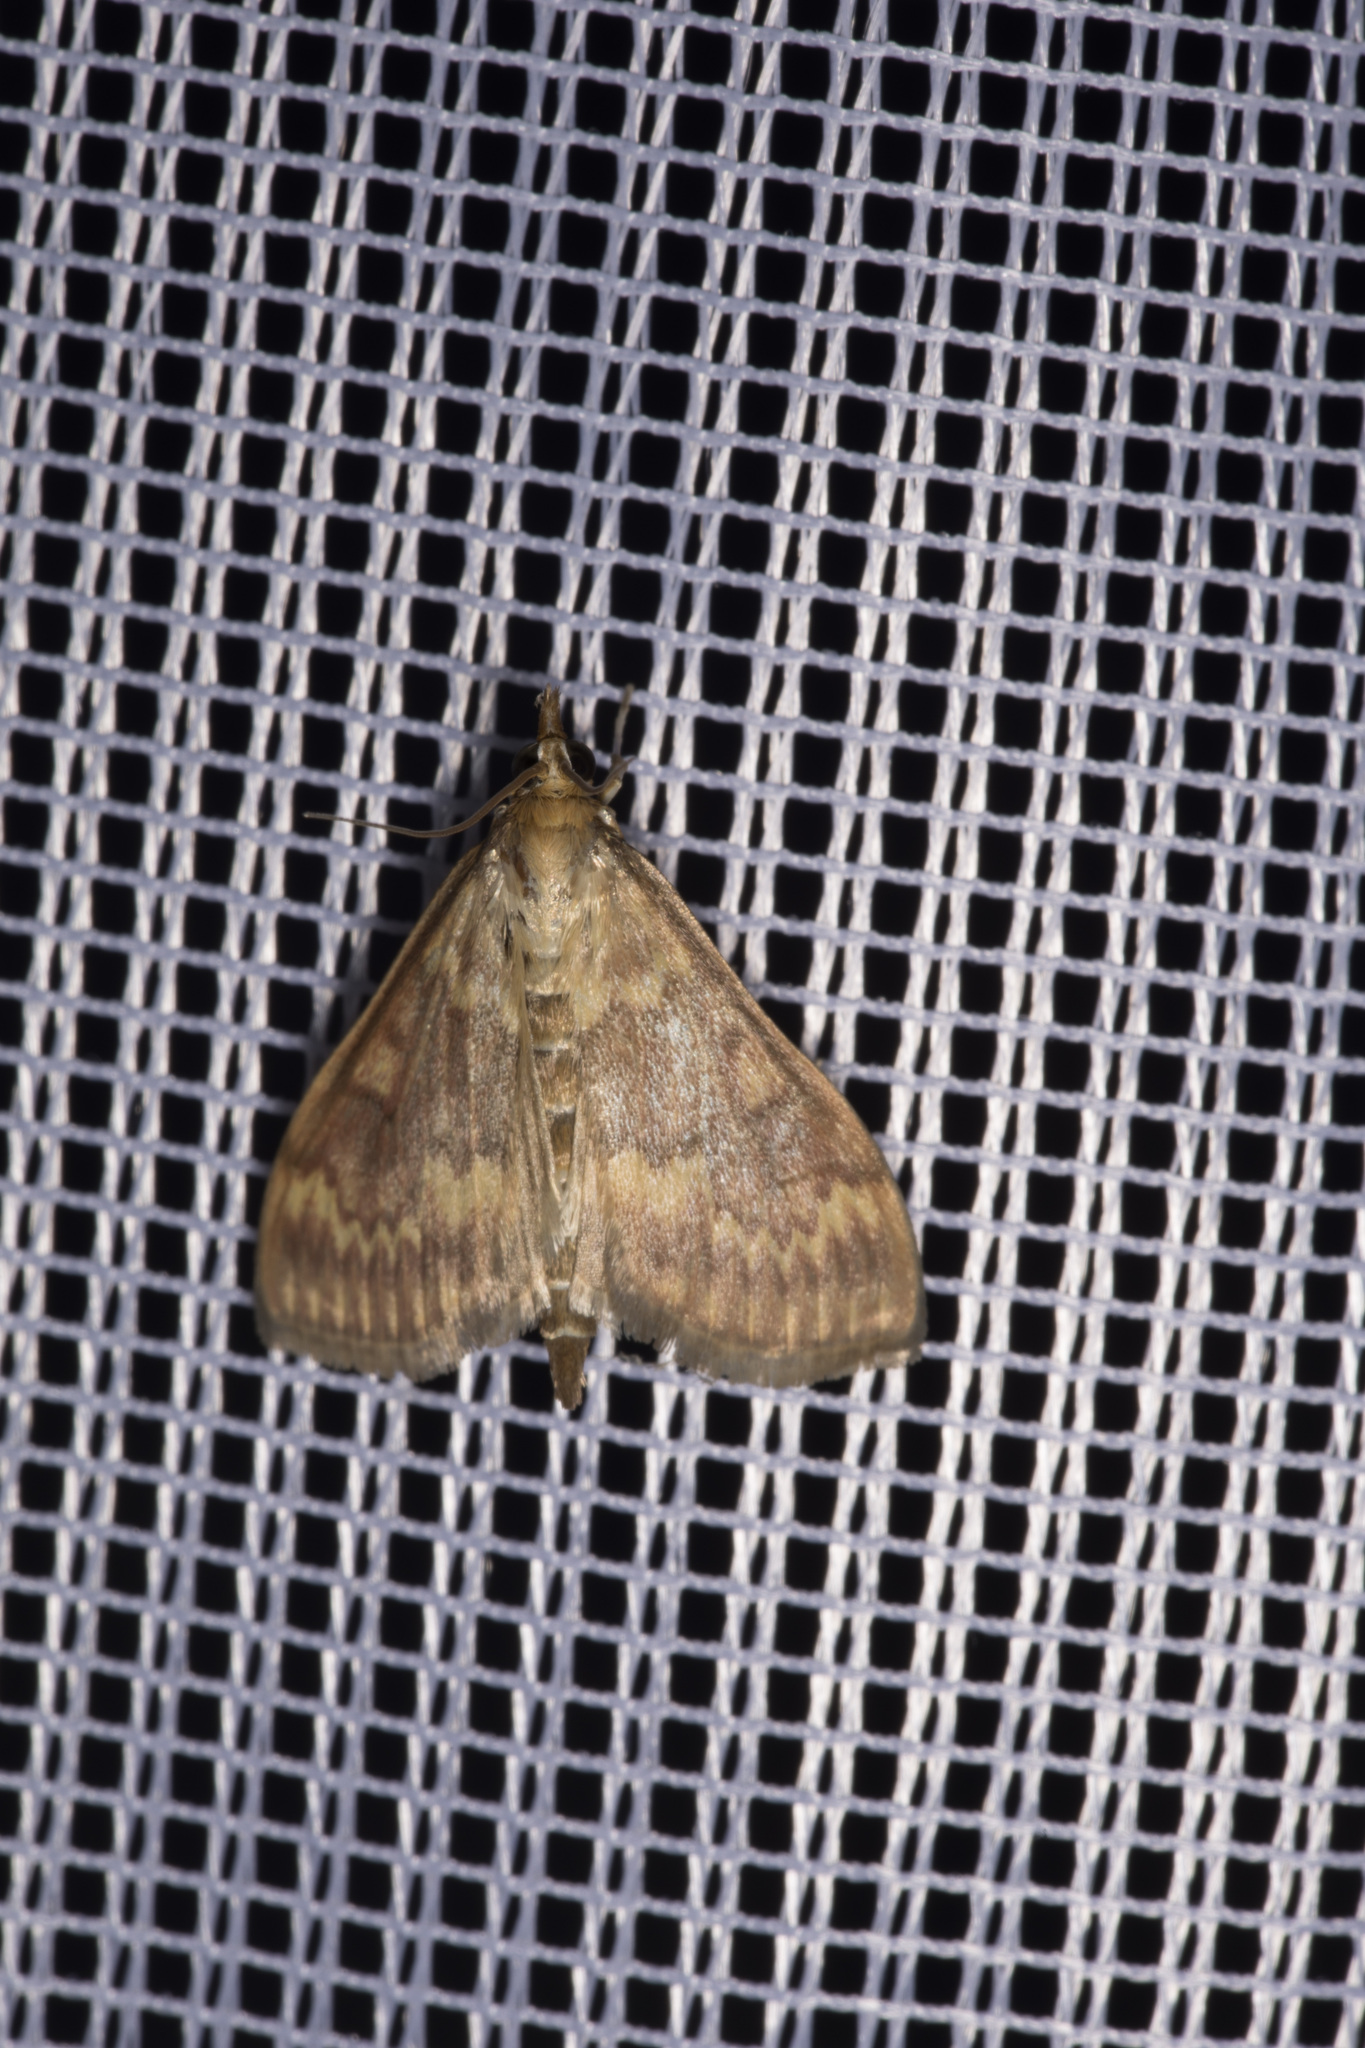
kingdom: Animalia
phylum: Arthropoda
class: Insecta
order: Lepidoptera
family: Crambidae
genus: Ostrinia
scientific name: Ostrinia nubilalis
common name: European corn borer
